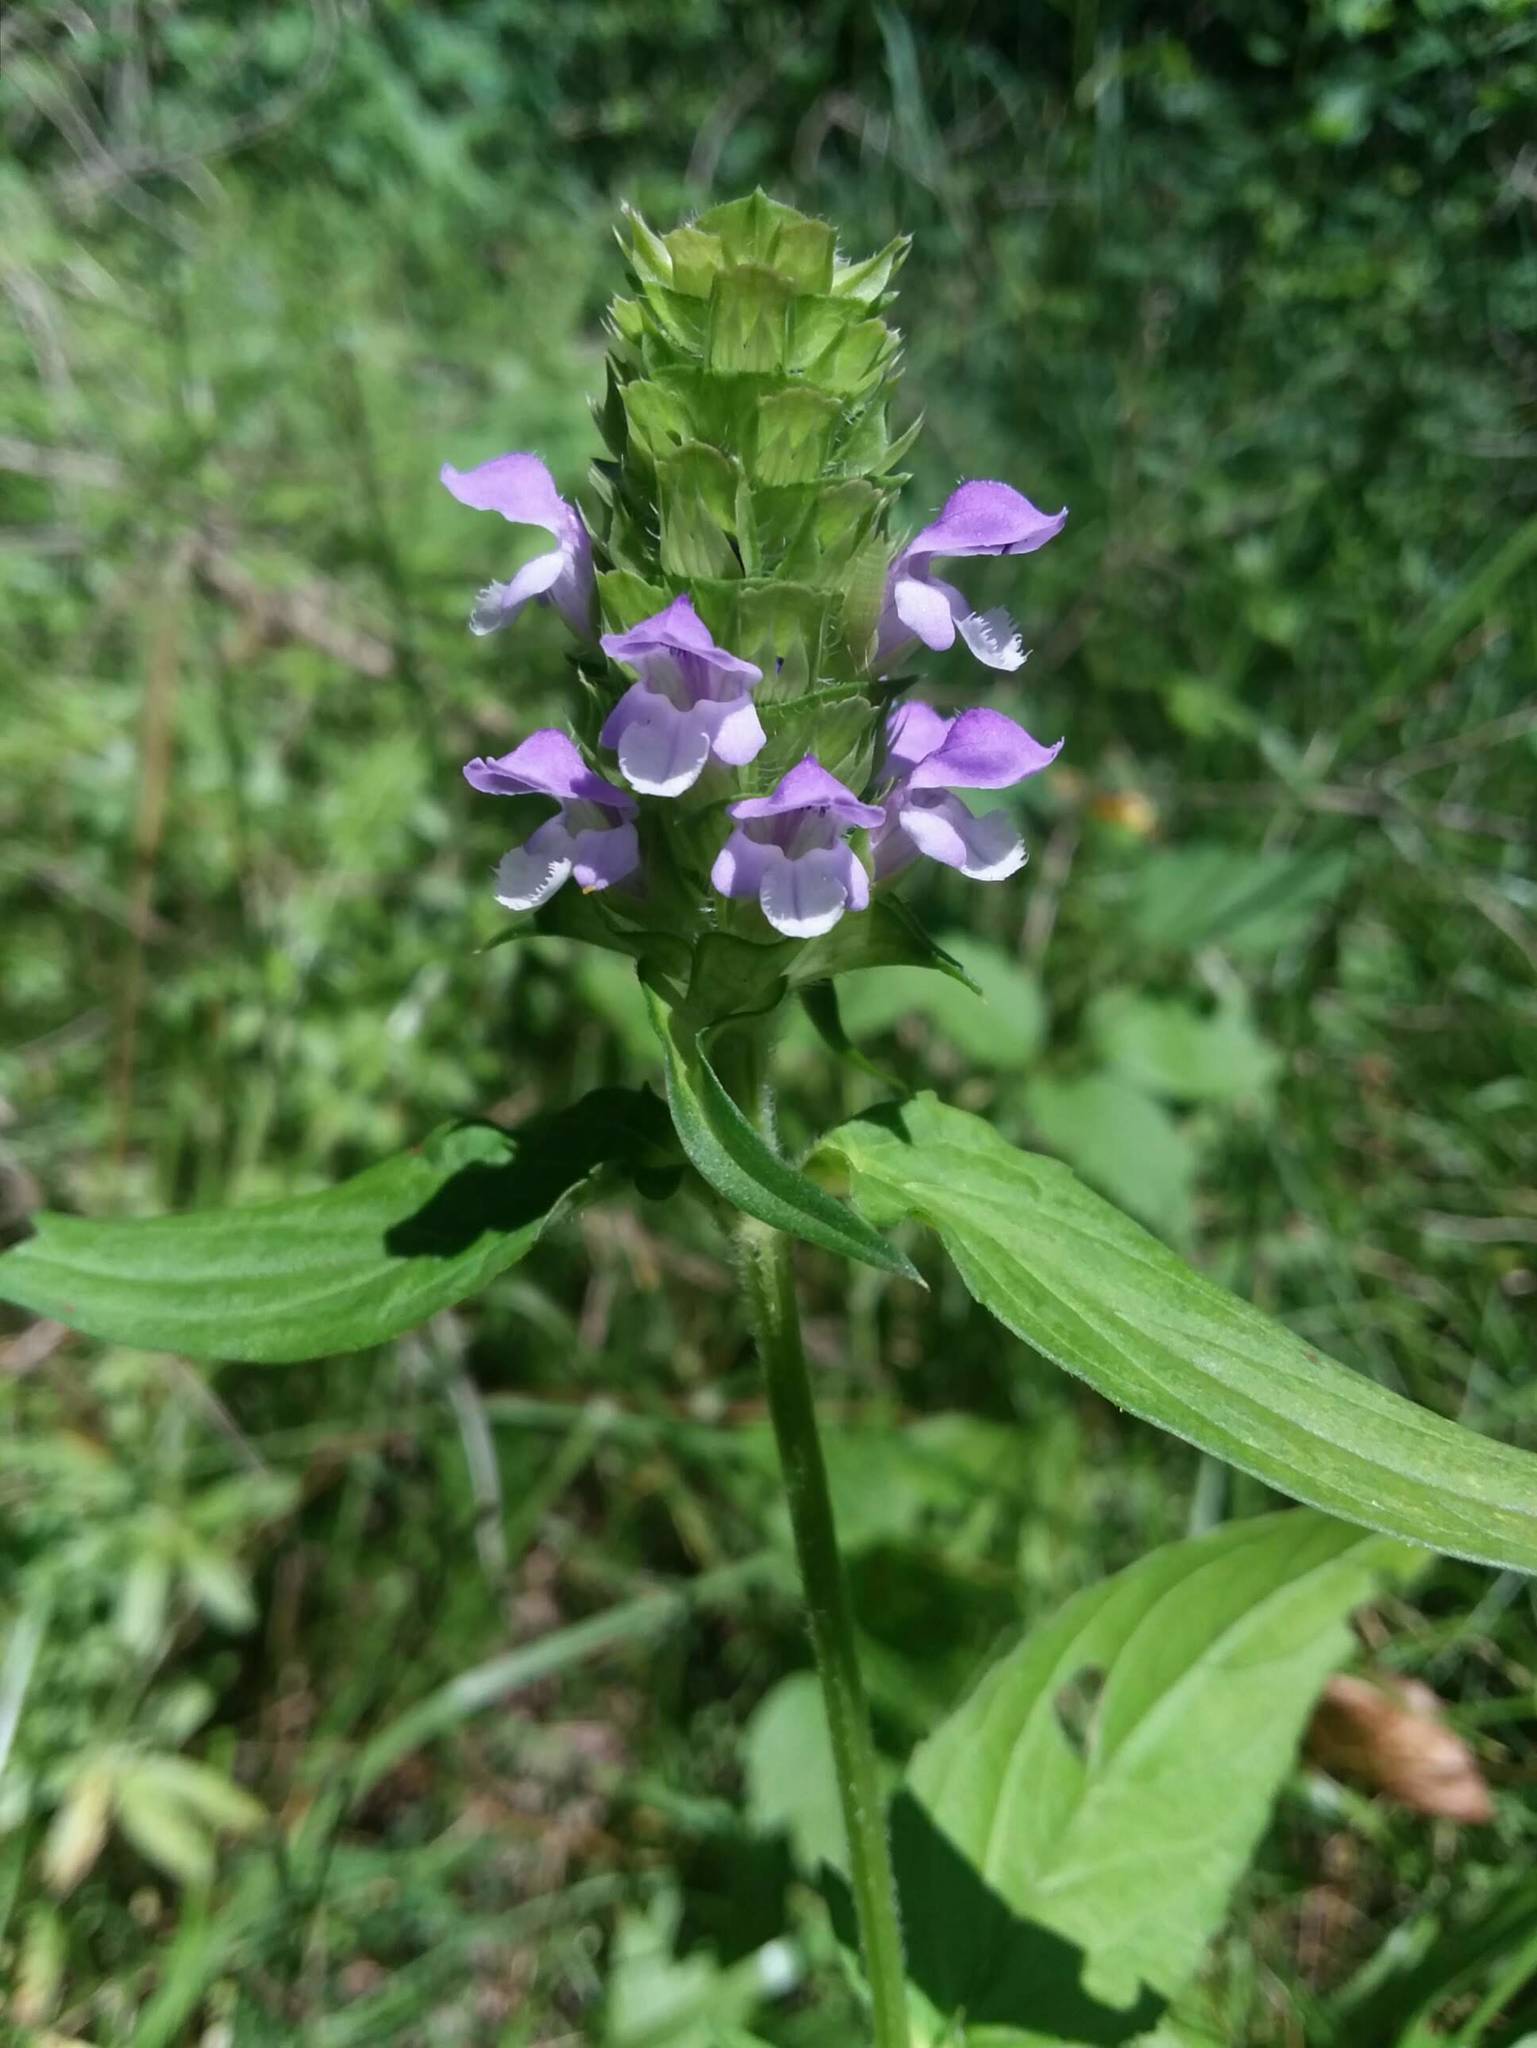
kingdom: Plantae
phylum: Tracheophyta
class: Magnoliopsida
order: Lamiales
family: Lamiaceae
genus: Prunella
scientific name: Prunella vulgaris
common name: Heal-all
